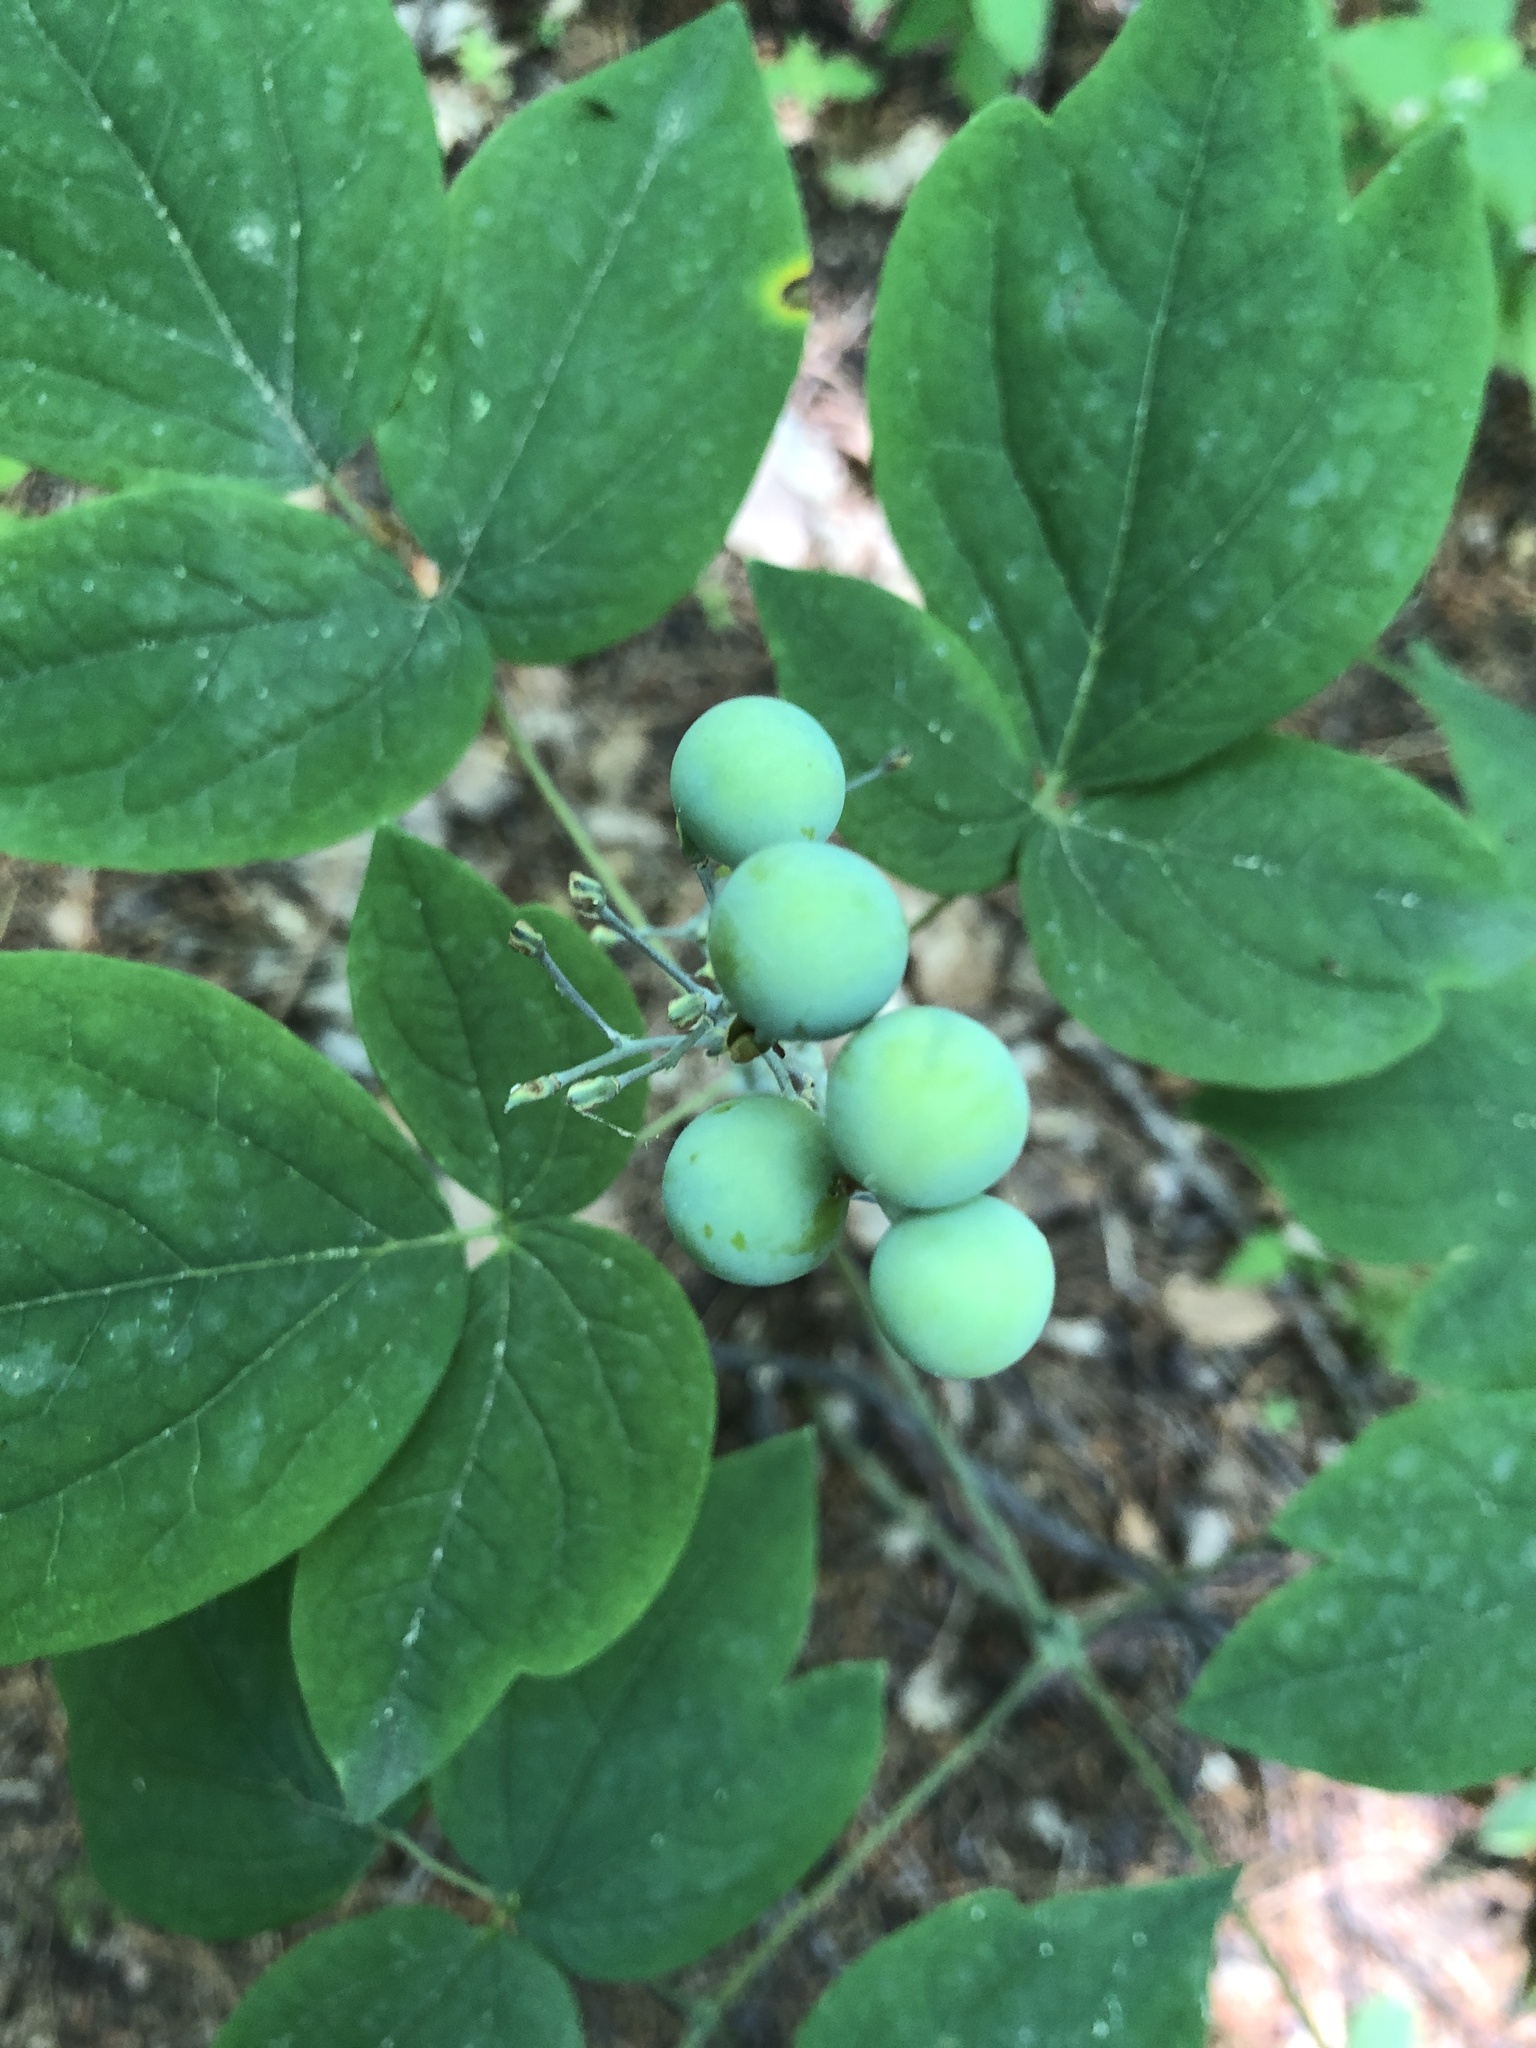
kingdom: Plantae
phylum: Tracheophyta
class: Magnoliopsida
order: Ranunculales
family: Berberidaceae
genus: Caulophyllum
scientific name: Caulophyllum thalictroides
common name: Blue cohosh
